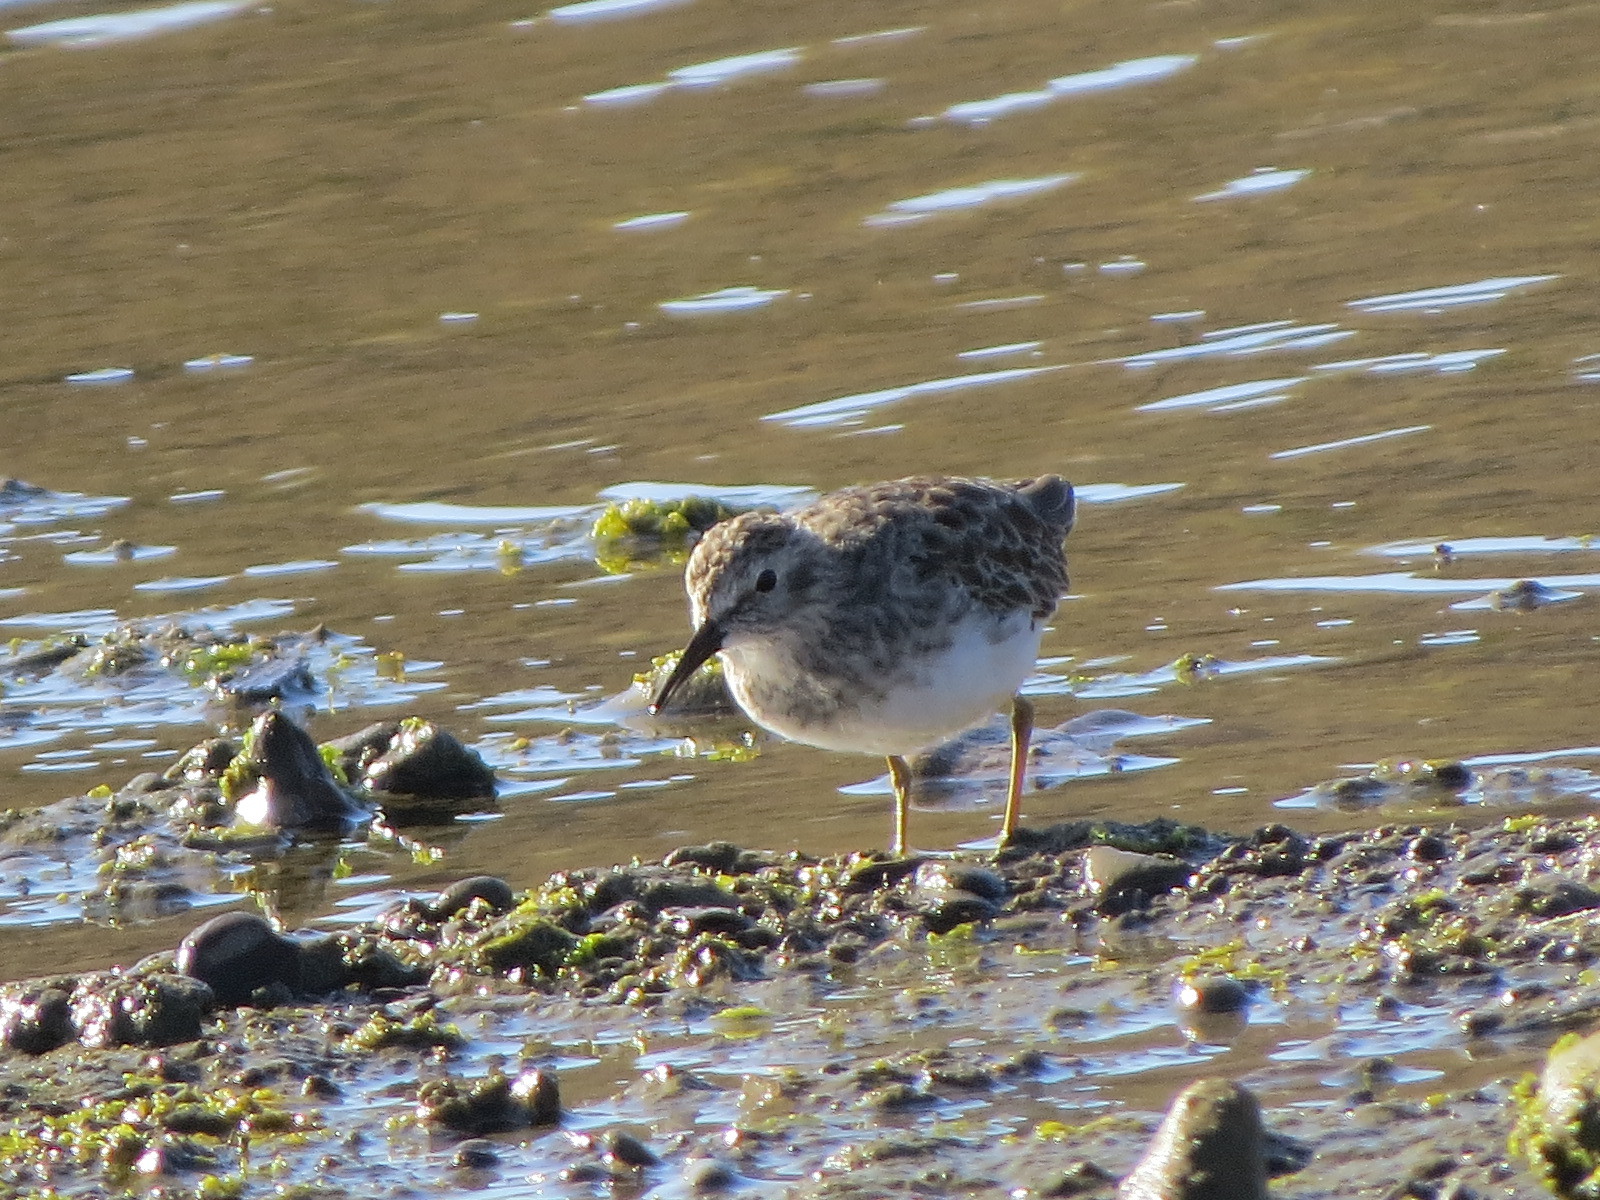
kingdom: Animalia
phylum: Chordata
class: Aves
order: Charadriiformes
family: Scolopacidae
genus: Calidris
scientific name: Calidris minutilla
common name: Least sandpiper
